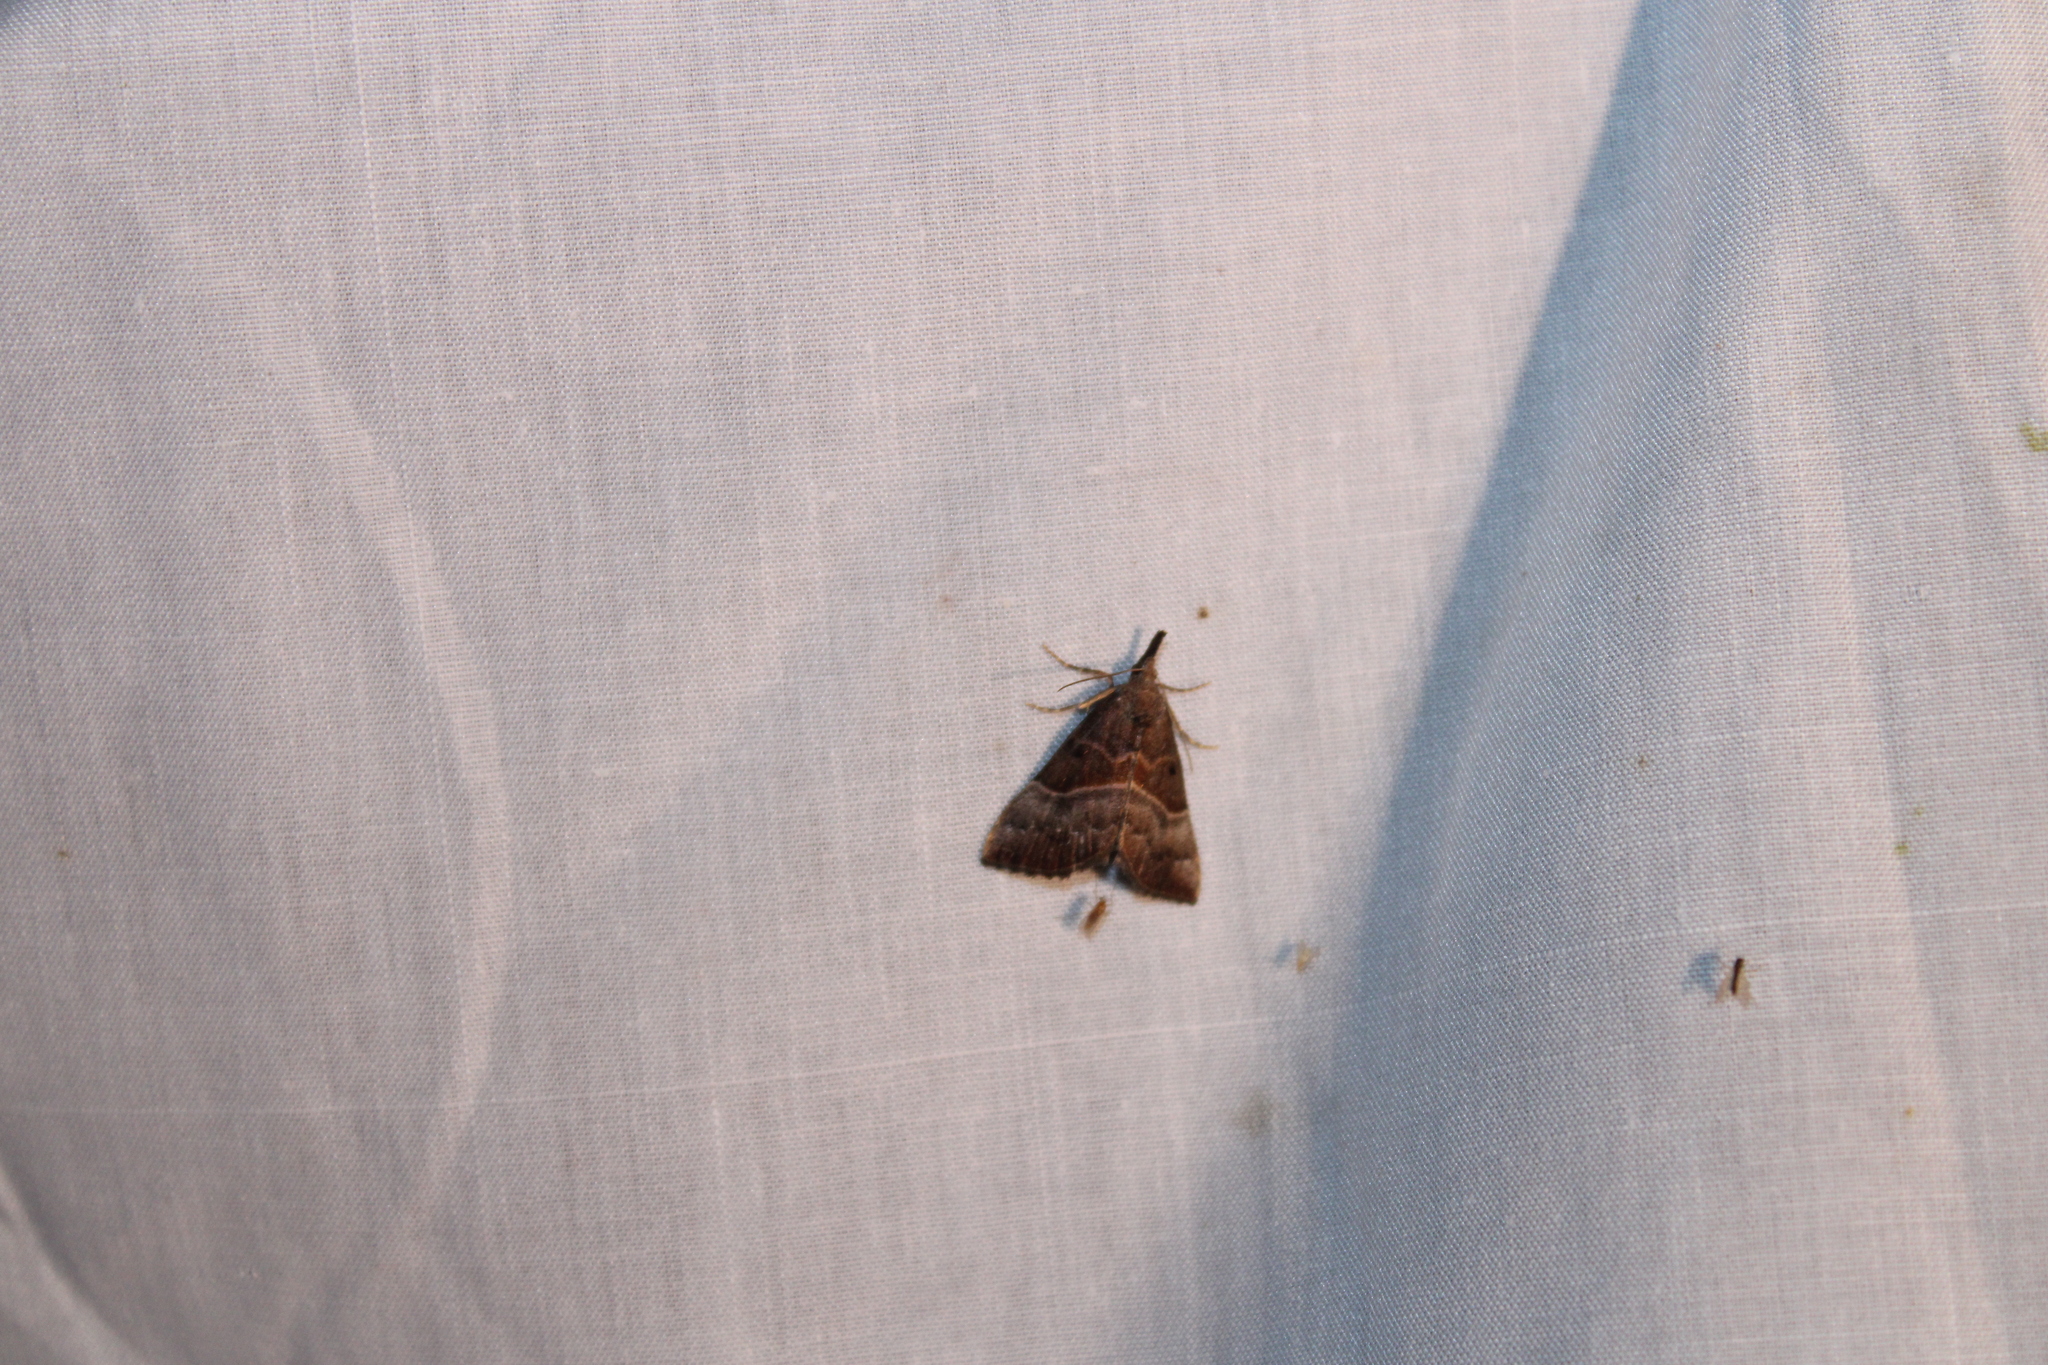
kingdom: Animalia
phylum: Arthropoda
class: Insecta
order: Lepidoptera
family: Erebidae
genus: Hypena
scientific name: Hypena eductalis
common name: Red-footed snout
